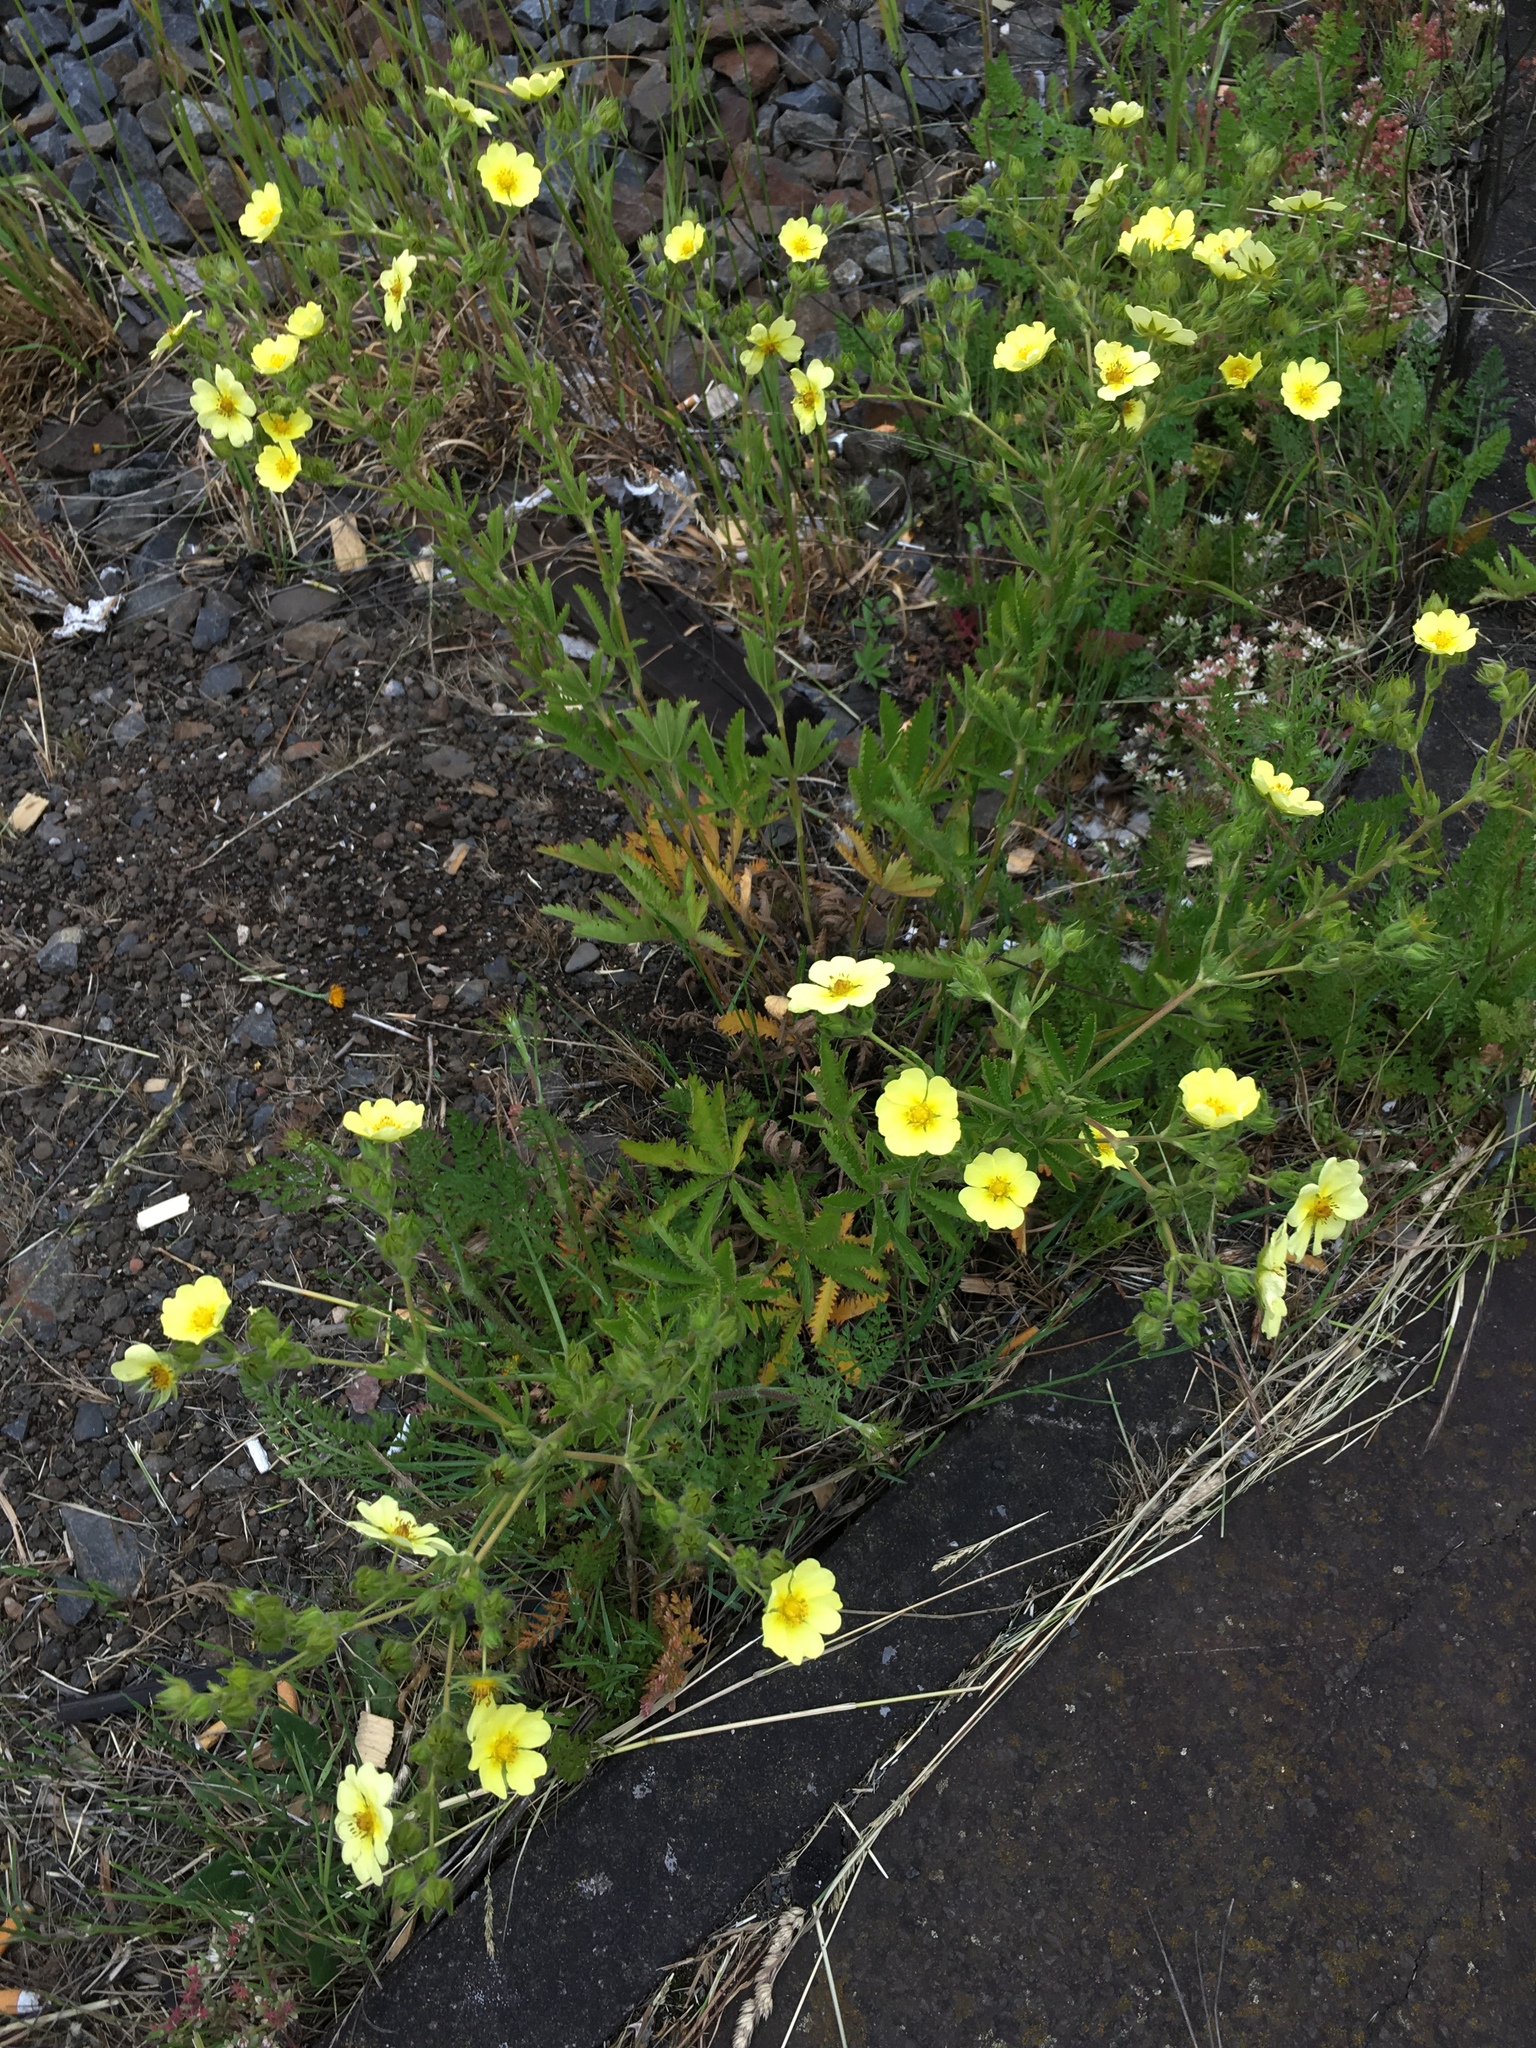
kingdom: Plantae
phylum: Tracheophyta
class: Magnoliopsida
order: Rosales
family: Rosaceae
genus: Potentilla
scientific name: Potentilla recta
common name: Sulphur cinquefoil
